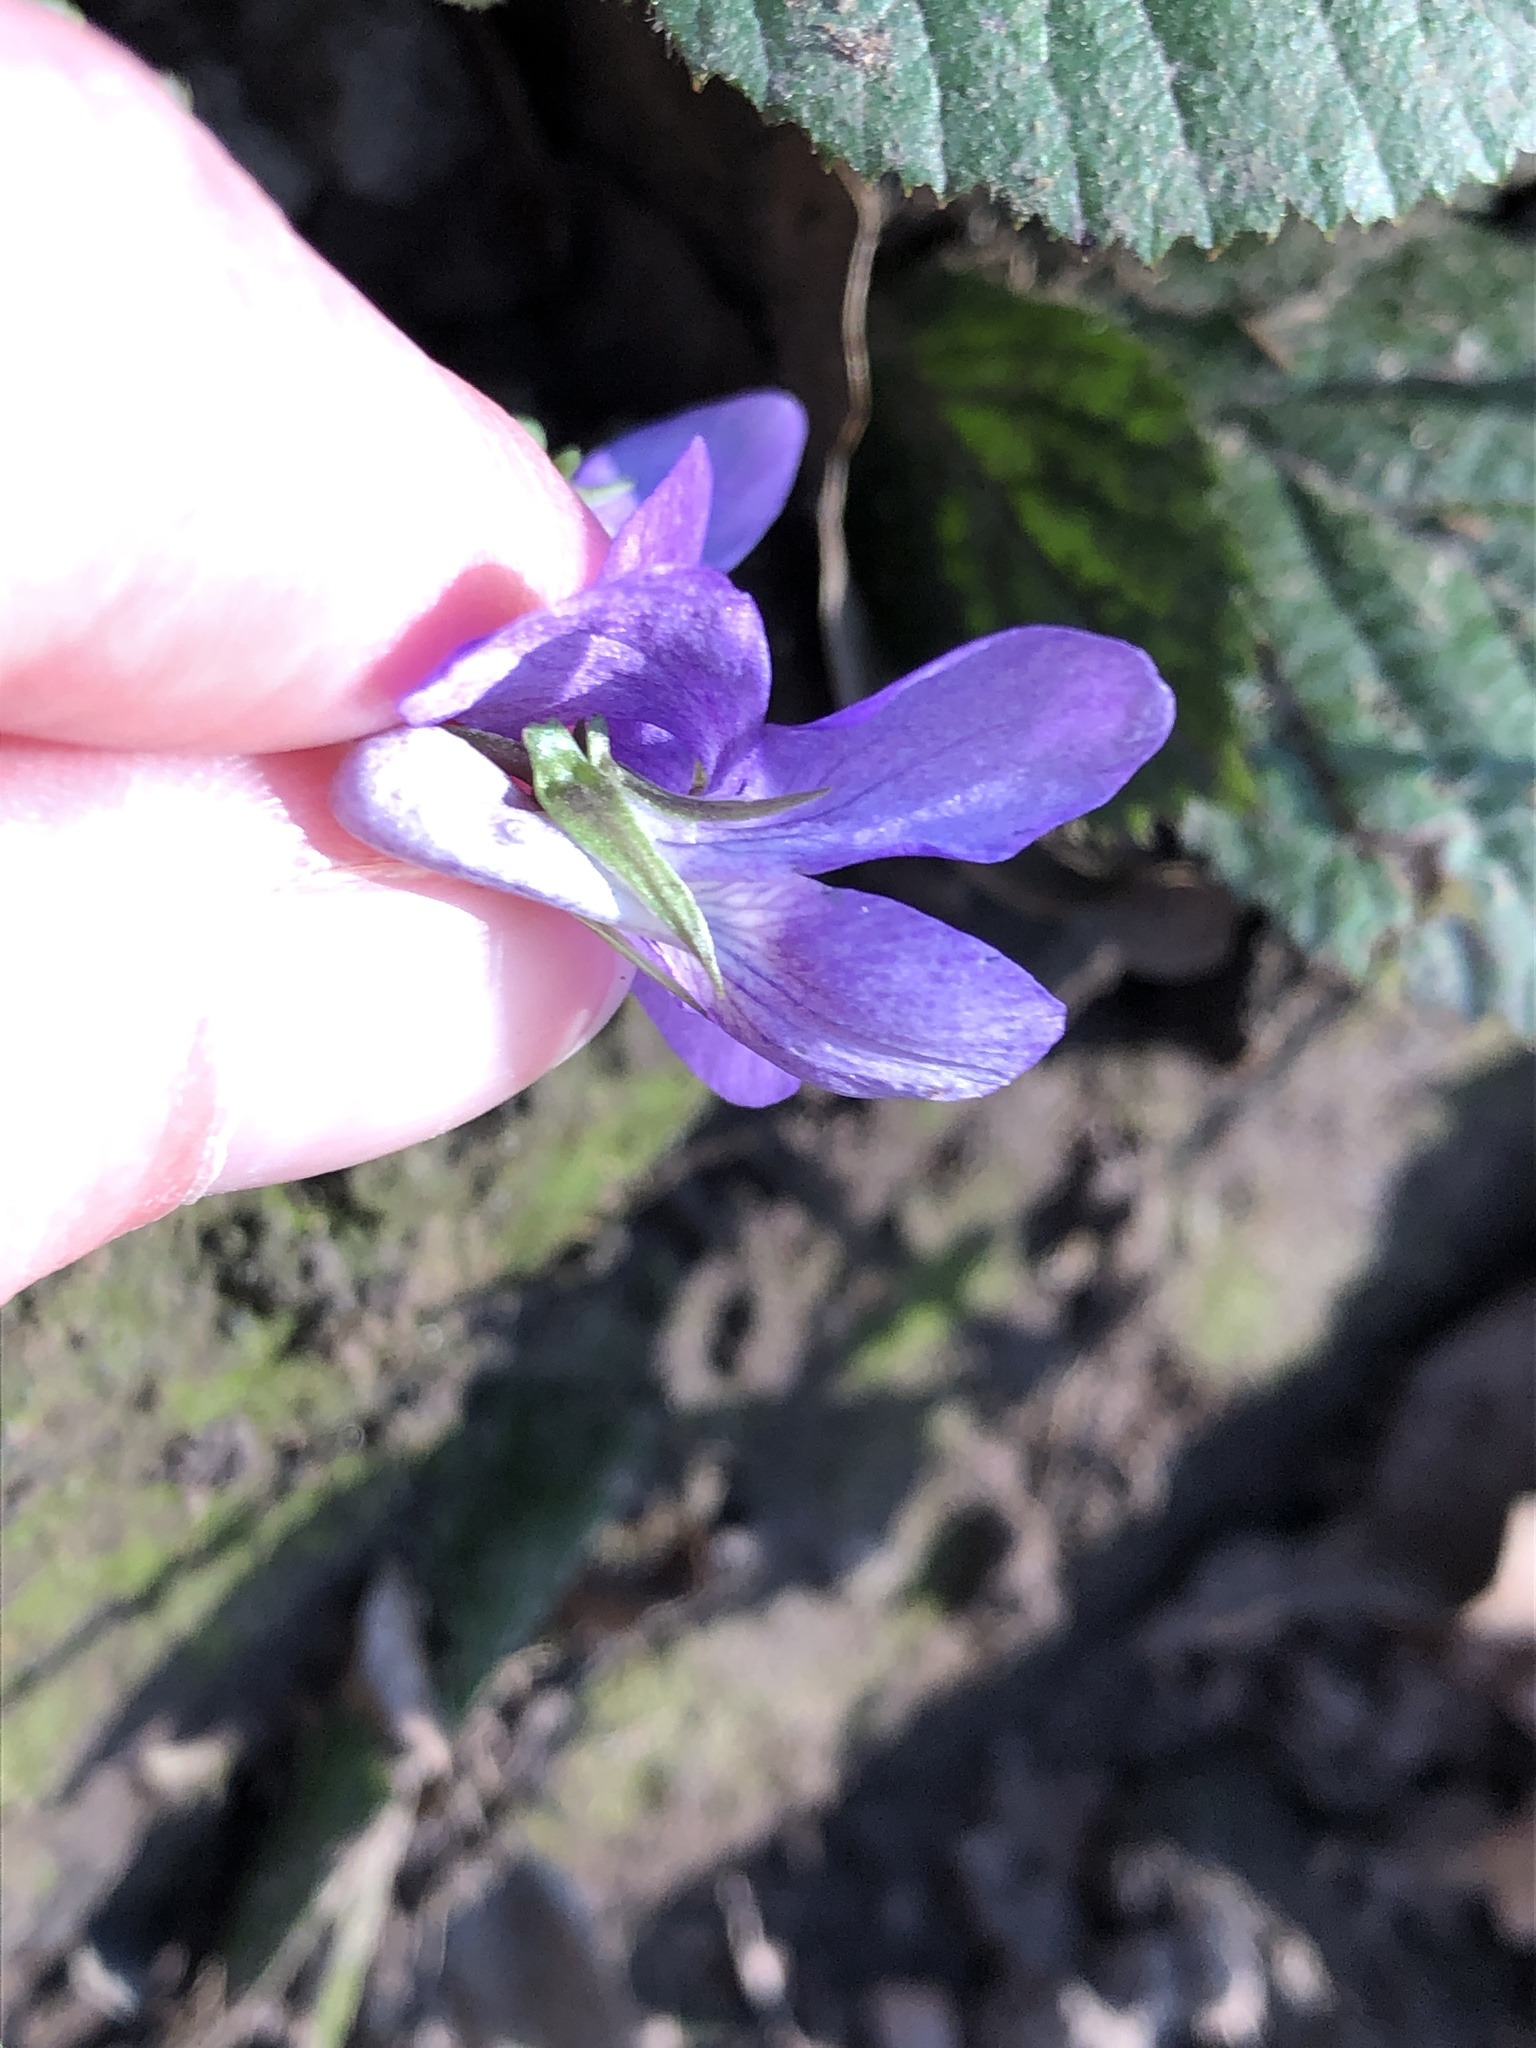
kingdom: Plantae
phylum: Tracheophyta
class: Magnoliopsida
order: Malpighiales
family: Violaceae
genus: Viola
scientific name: Viola riviniana
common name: Common dog-violet
